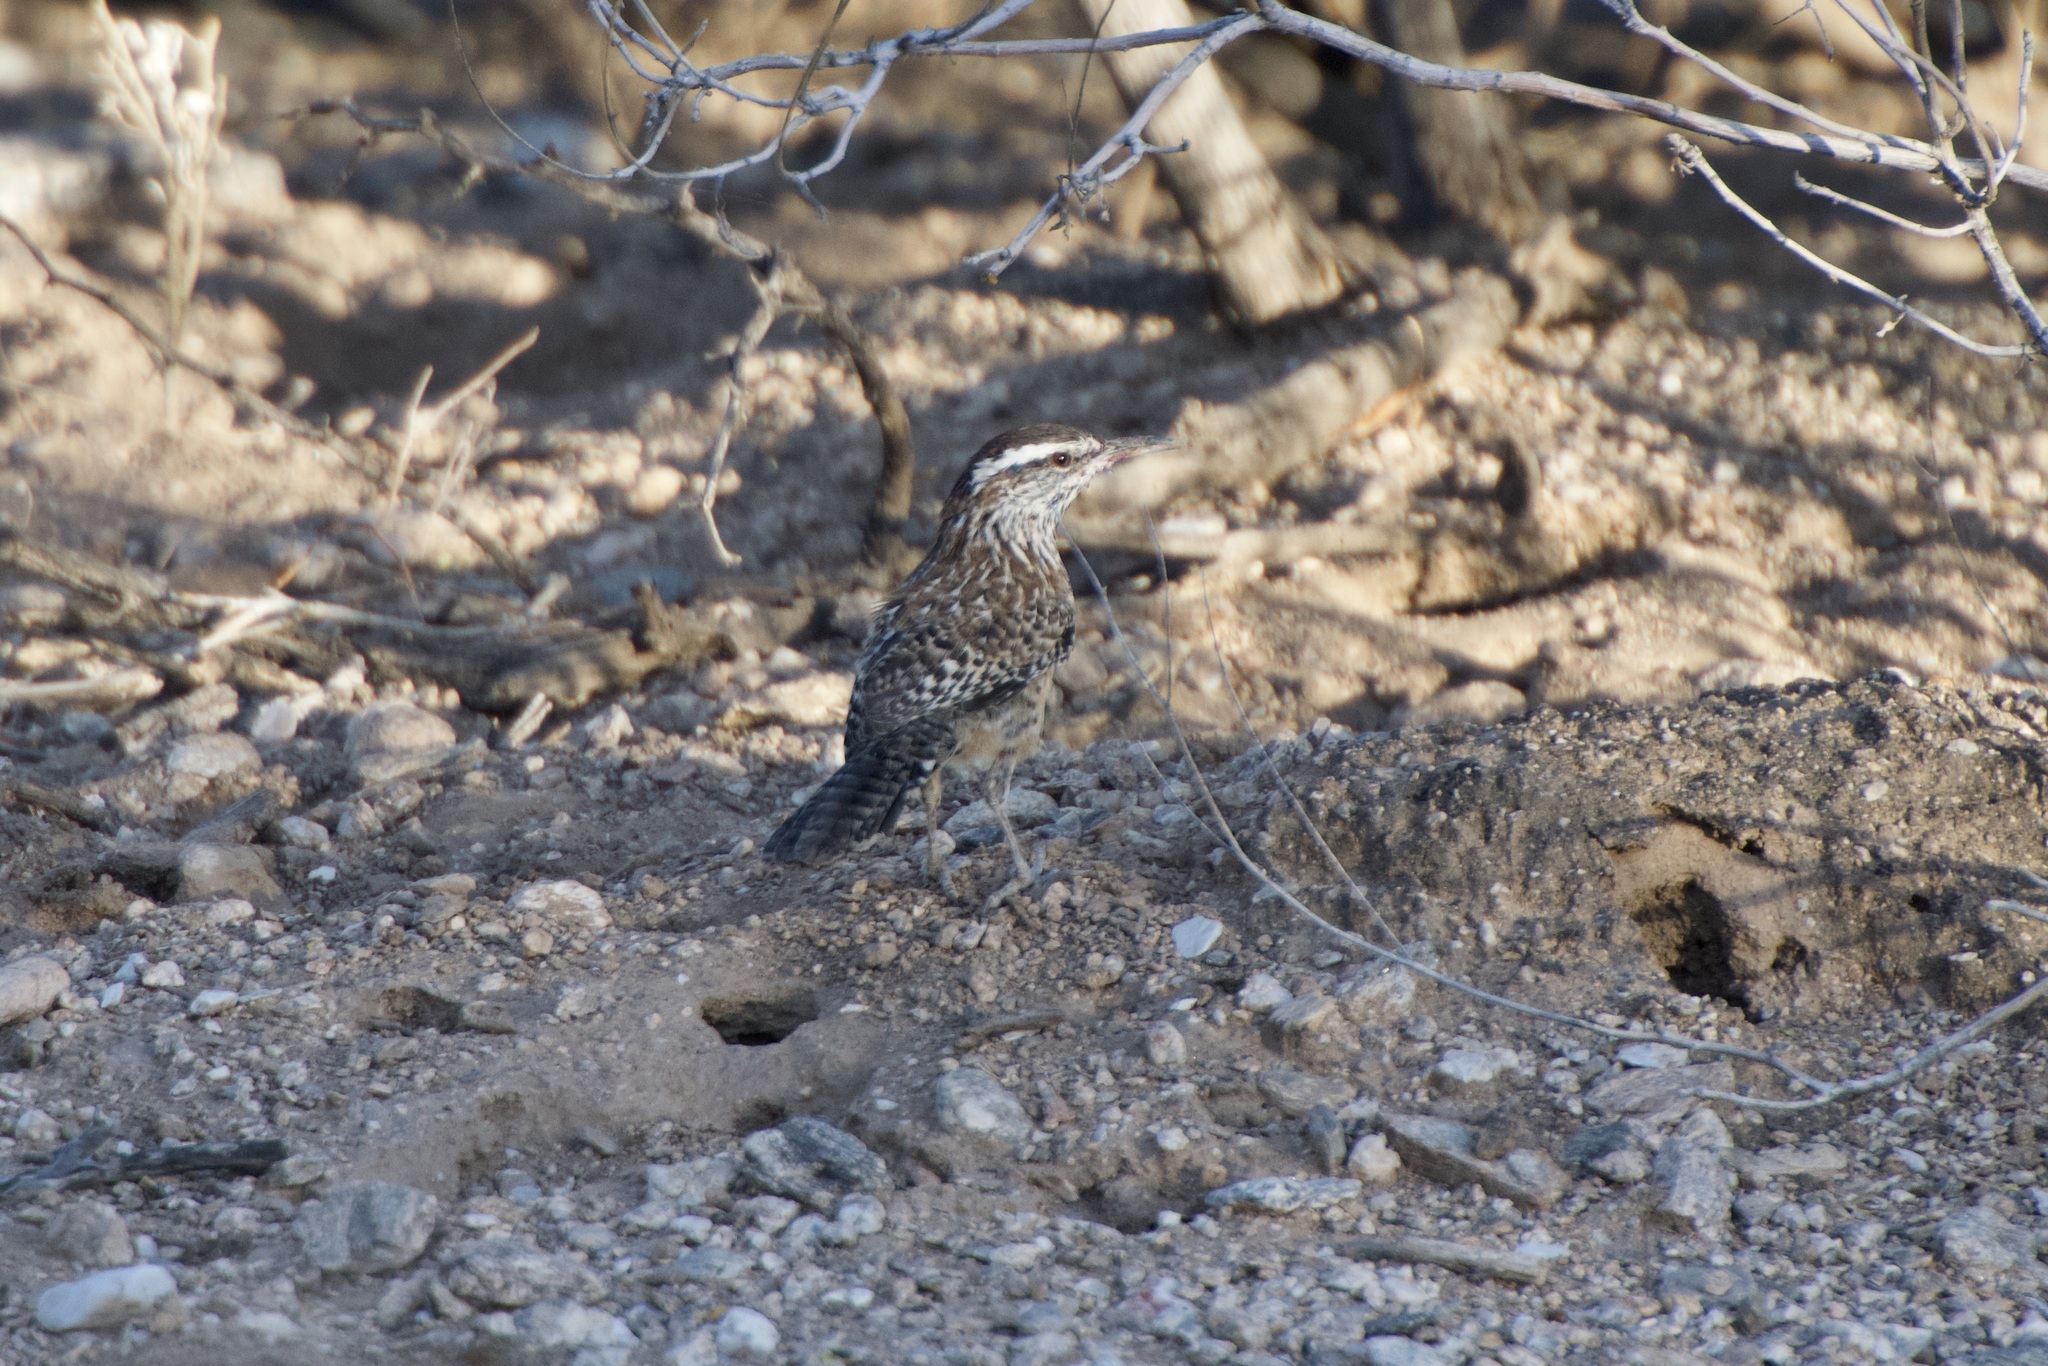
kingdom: Animalia
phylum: Chordata
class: Aves
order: Passeriformes
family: Troglodytidae
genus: Campylorhynchus
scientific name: Campylorhynchus brunneicapillus
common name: Cactus wren
